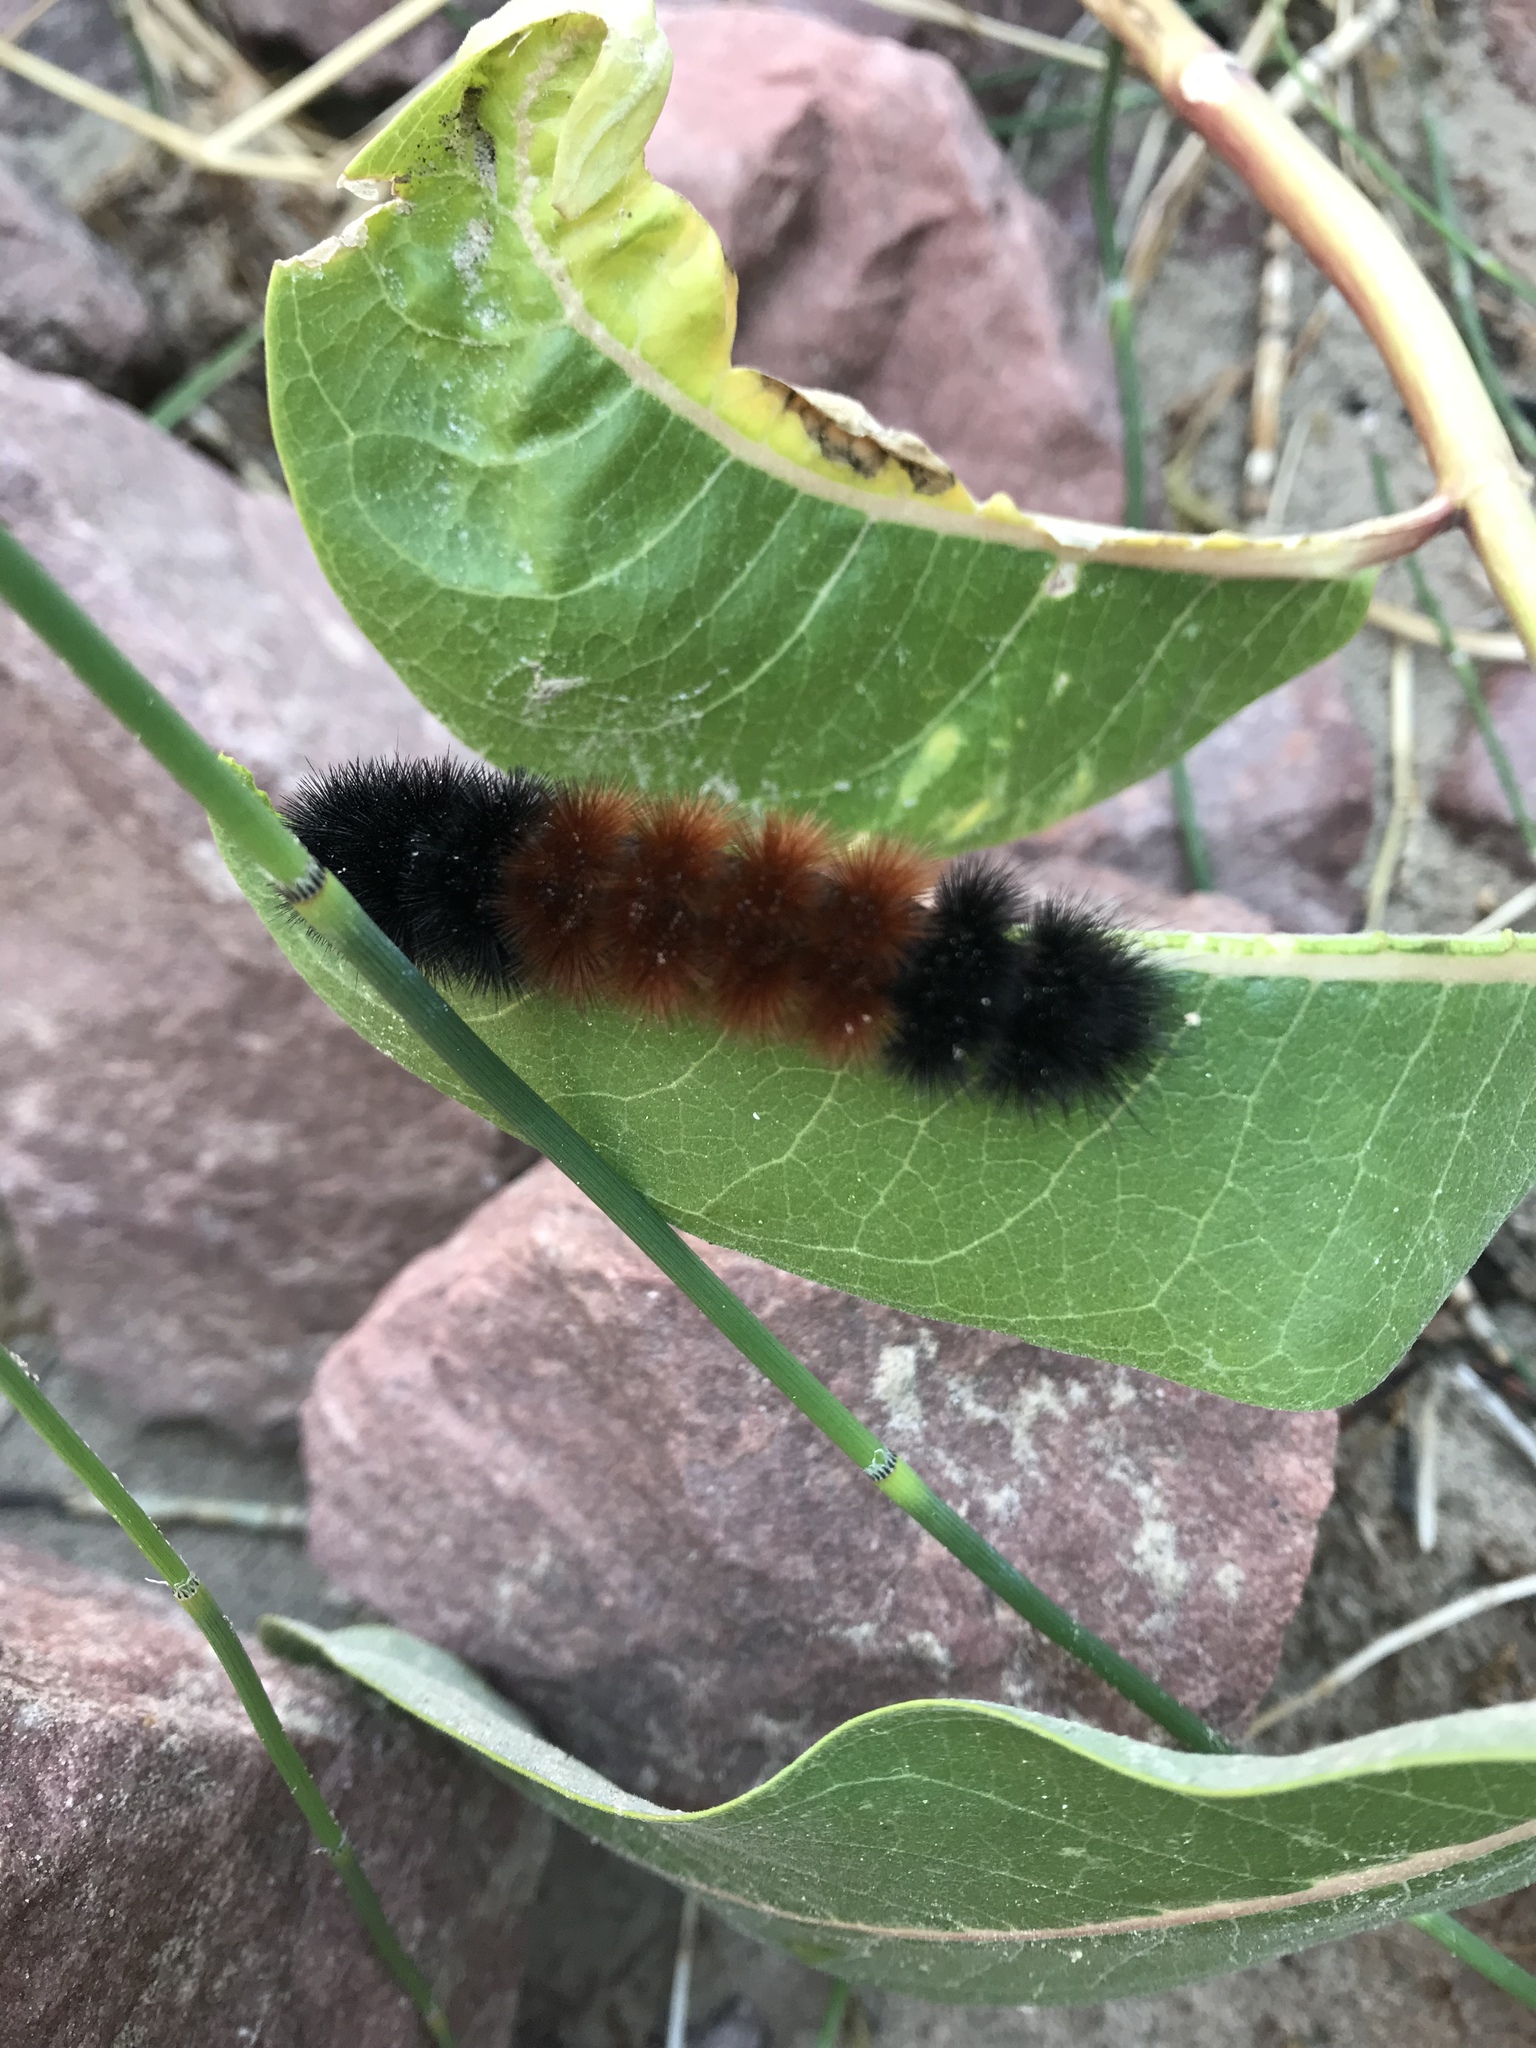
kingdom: Animalia
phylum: Arthropoda
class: Insecta
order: Lepidoptera
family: Erebidae
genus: Pyrrharctia
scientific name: Pyrrharctia isabella
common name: Isabella tiger moth
